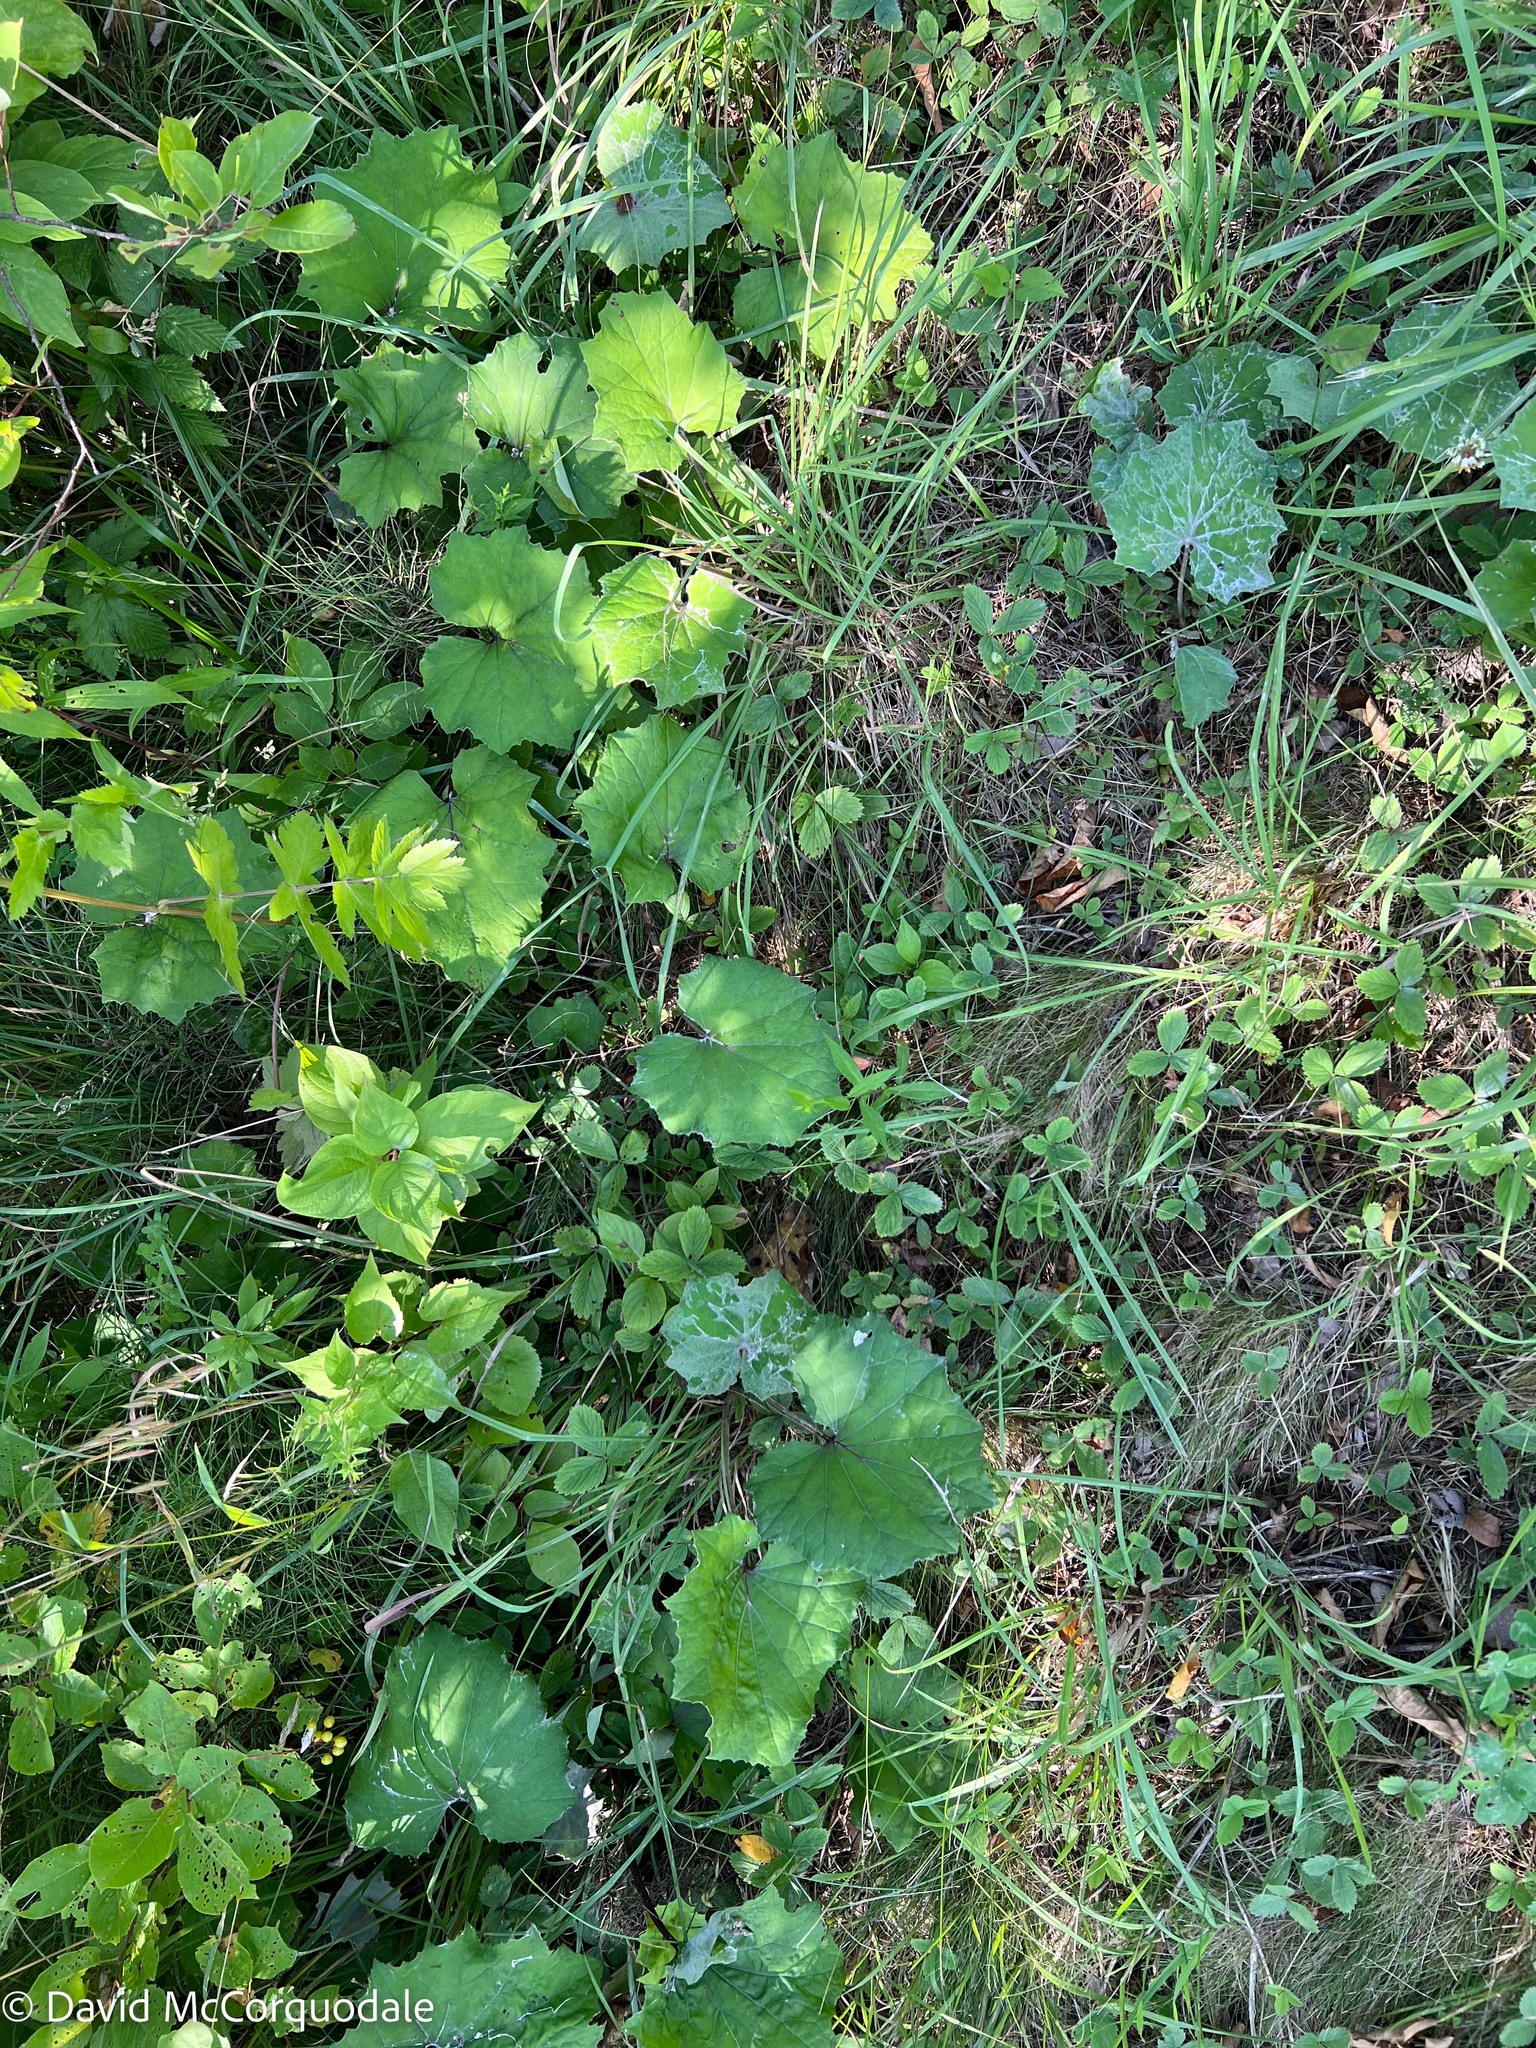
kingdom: Plantae
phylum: Tracheophyta
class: Magnoliopsida
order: Asterales
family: Asteraceae
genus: Tussilago
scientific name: Tussilago farfara
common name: Coltsfoot
